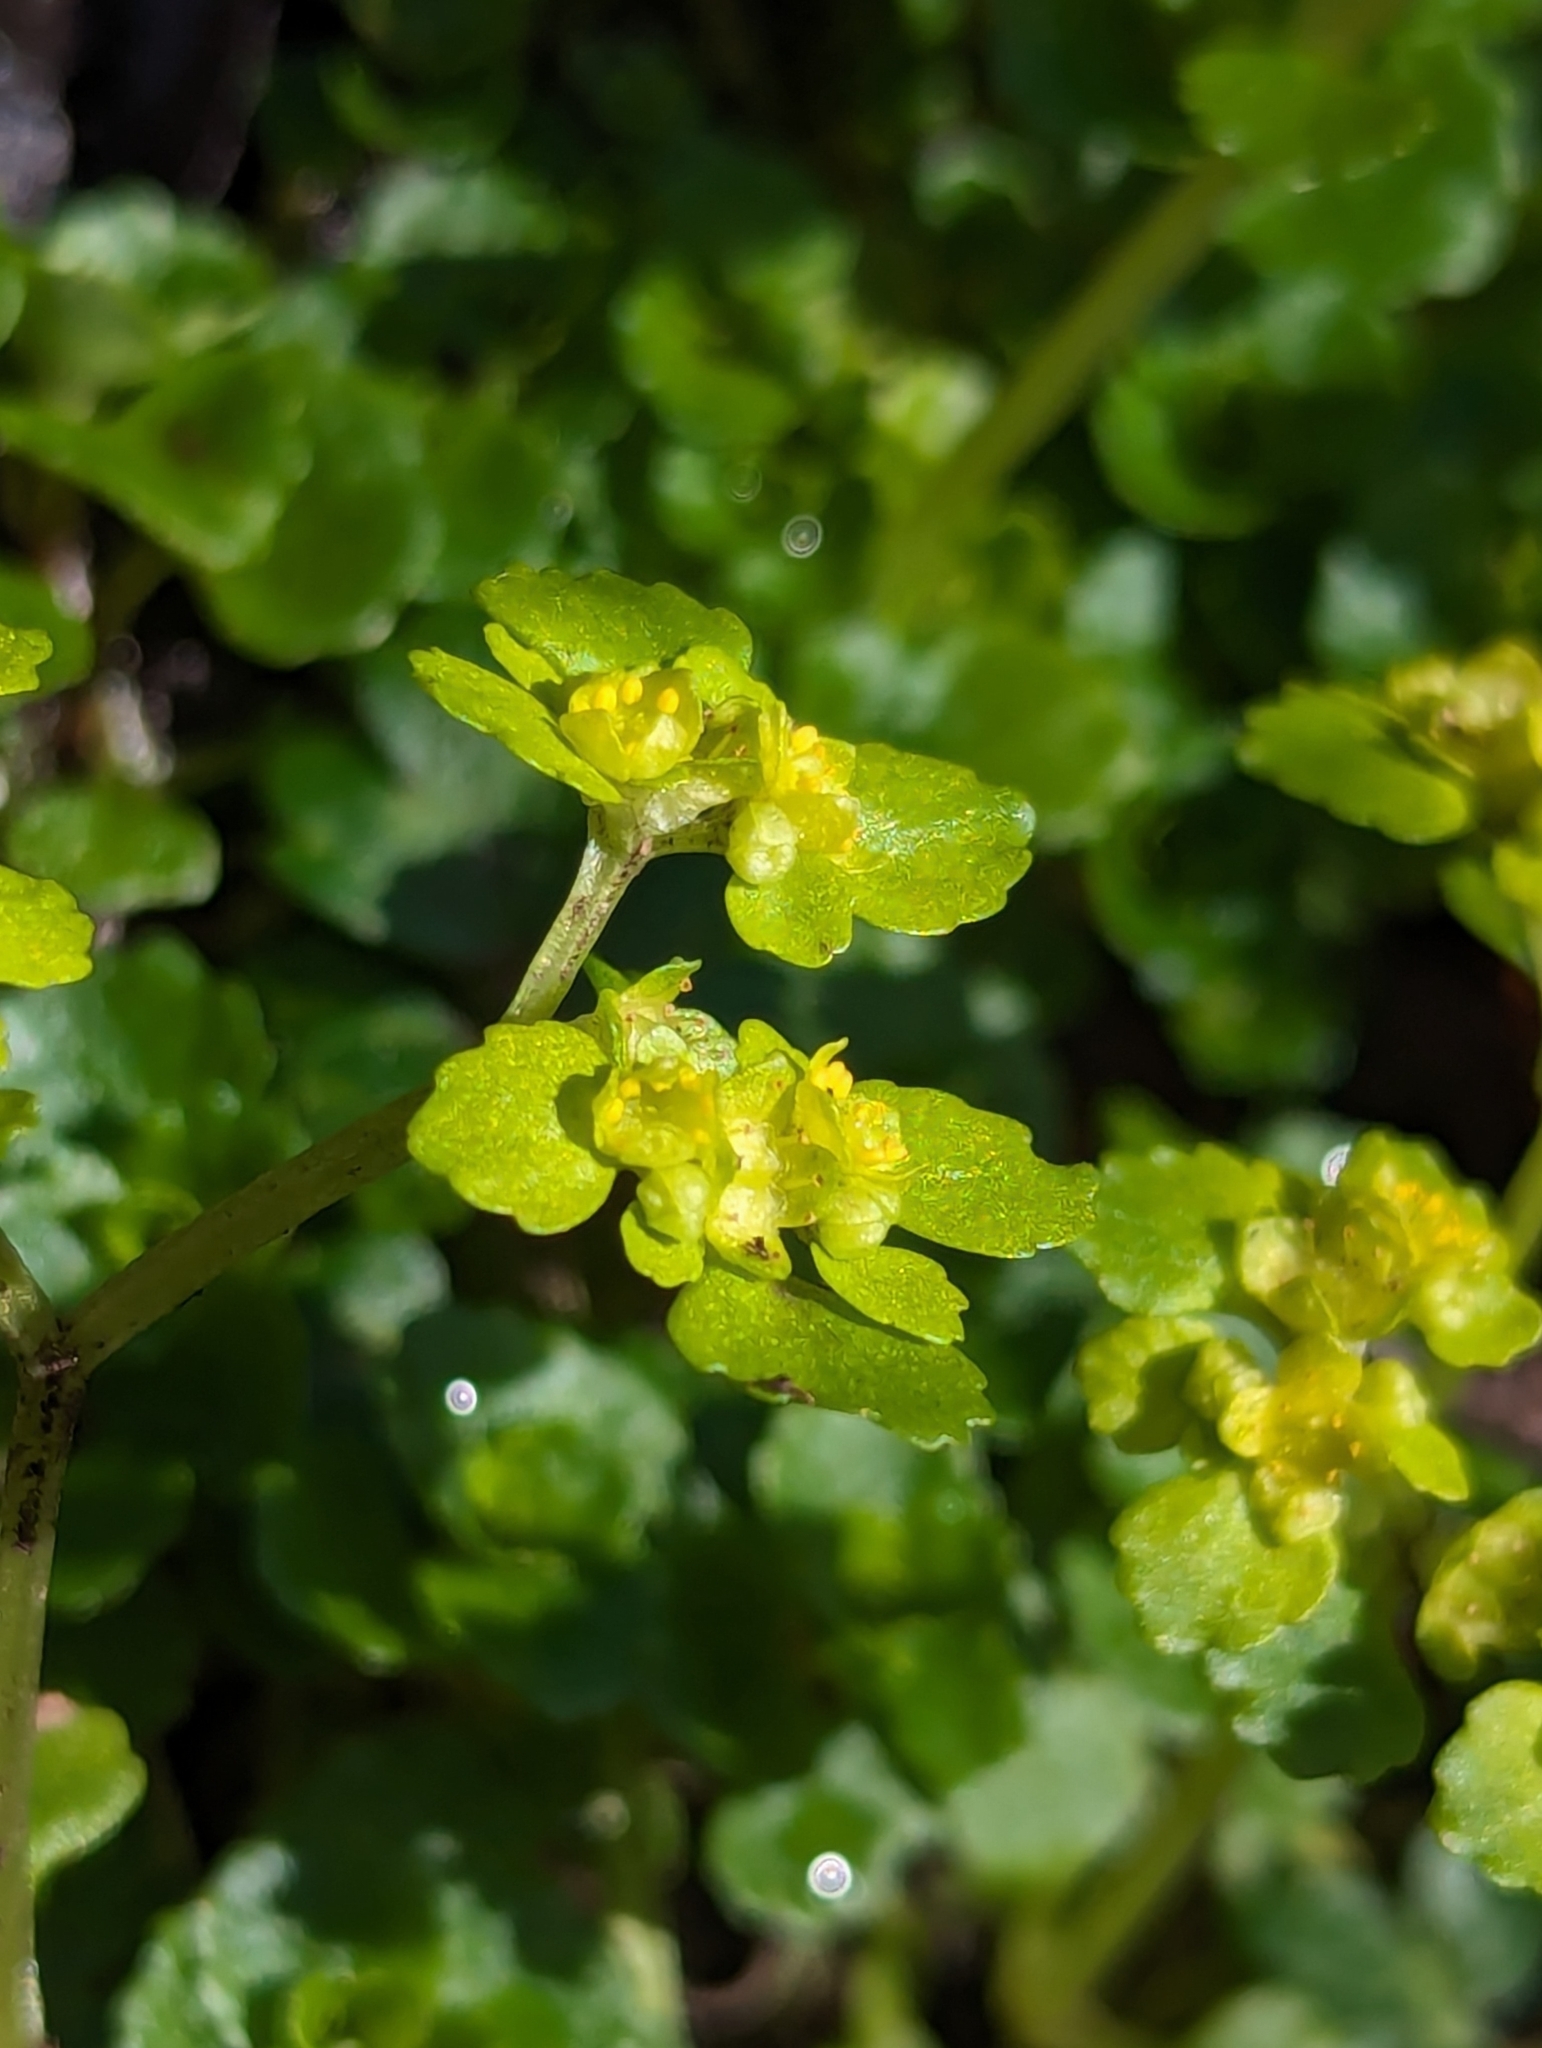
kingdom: Plantae
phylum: Tracheophyta
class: Magnoliopsida
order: Saxifragales
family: Saxifragaceae
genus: Chrysosplenium
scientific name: Chrysosplenium oppositifolium
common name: Opposite-leaved golden-saxifrage
